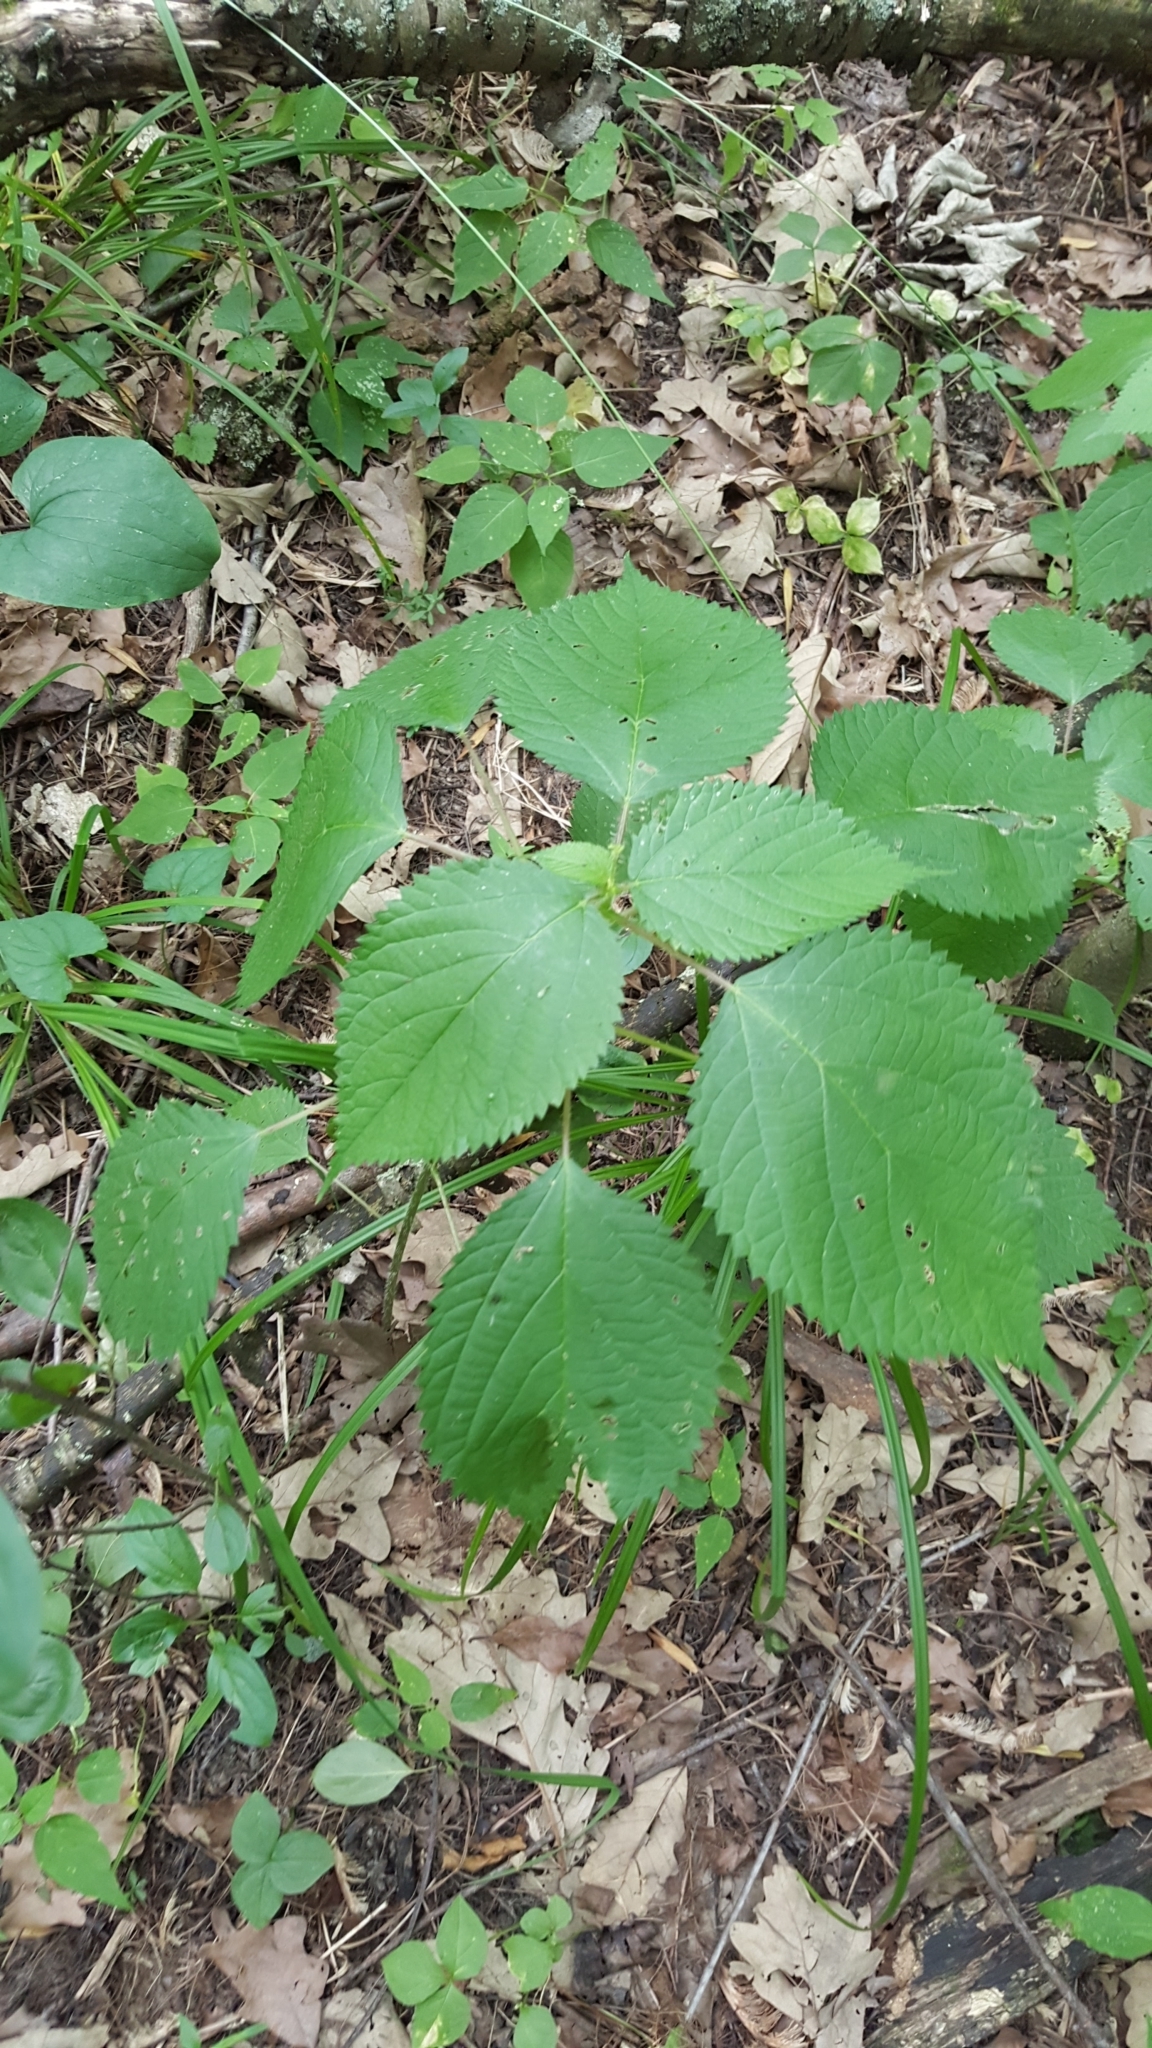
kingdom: Plantae
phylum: Tracheophyta
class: Magnoliopsida
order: Rosales
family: Urticaceae
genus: Laportea
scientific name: Laportea canadensis
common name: Canada nettle
